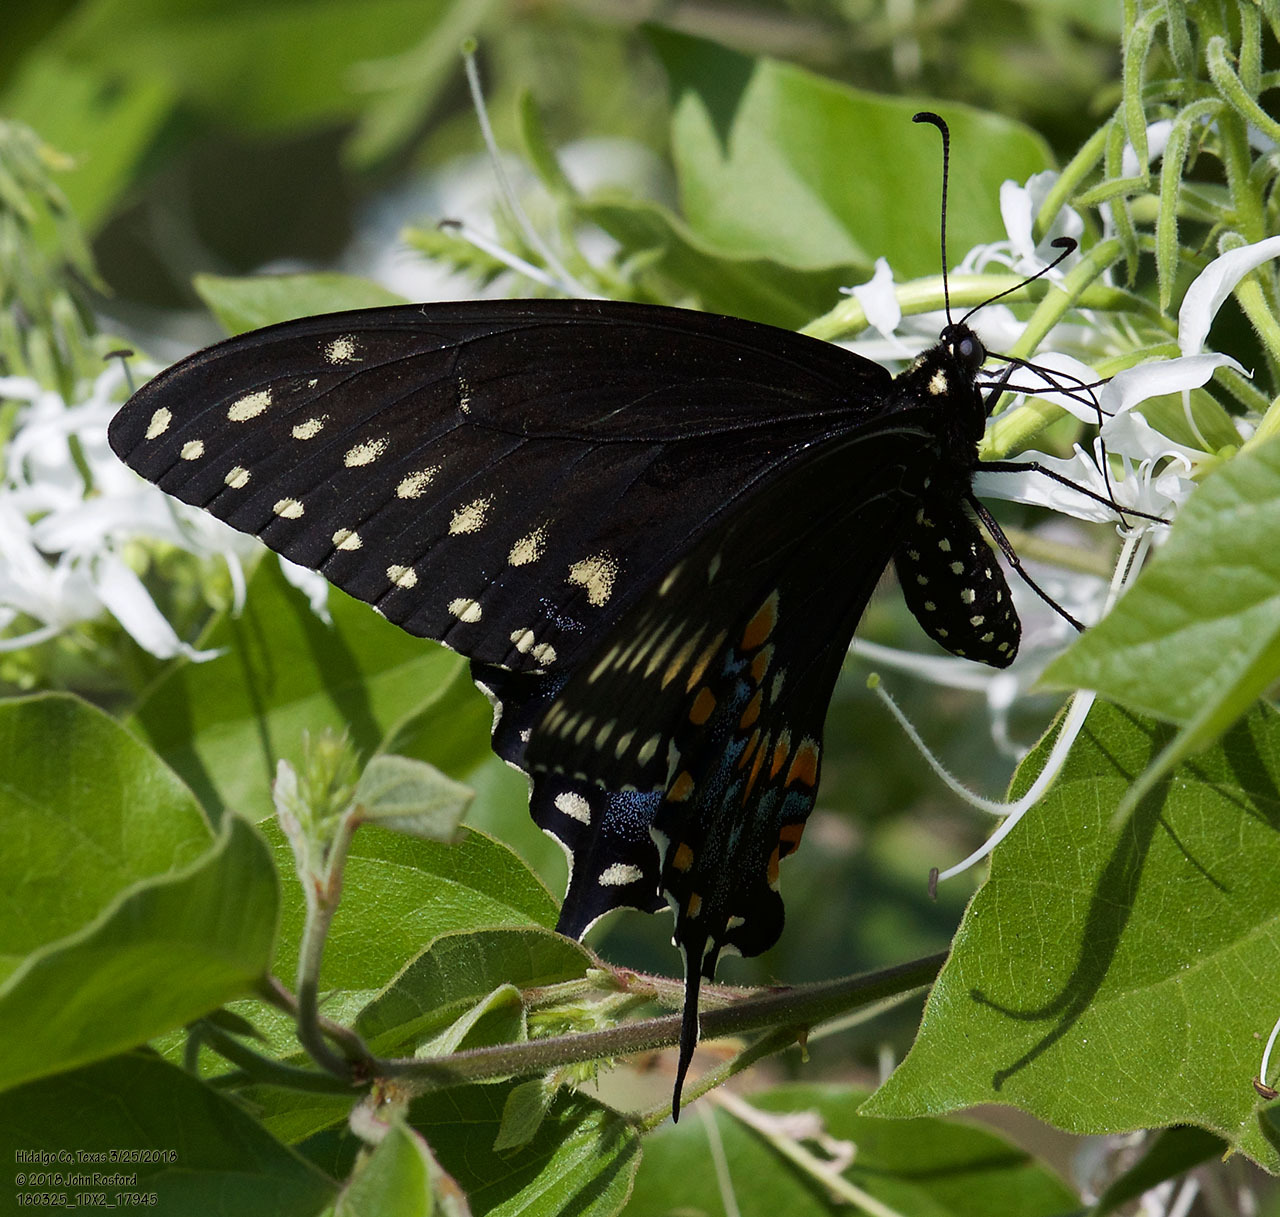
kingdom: Animalia
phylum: Arthropoda
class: Insecta
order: Lepidoptera
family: Papilionidae
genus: Papilio
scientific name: Papilio polyxenes
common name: Black swallowtail
